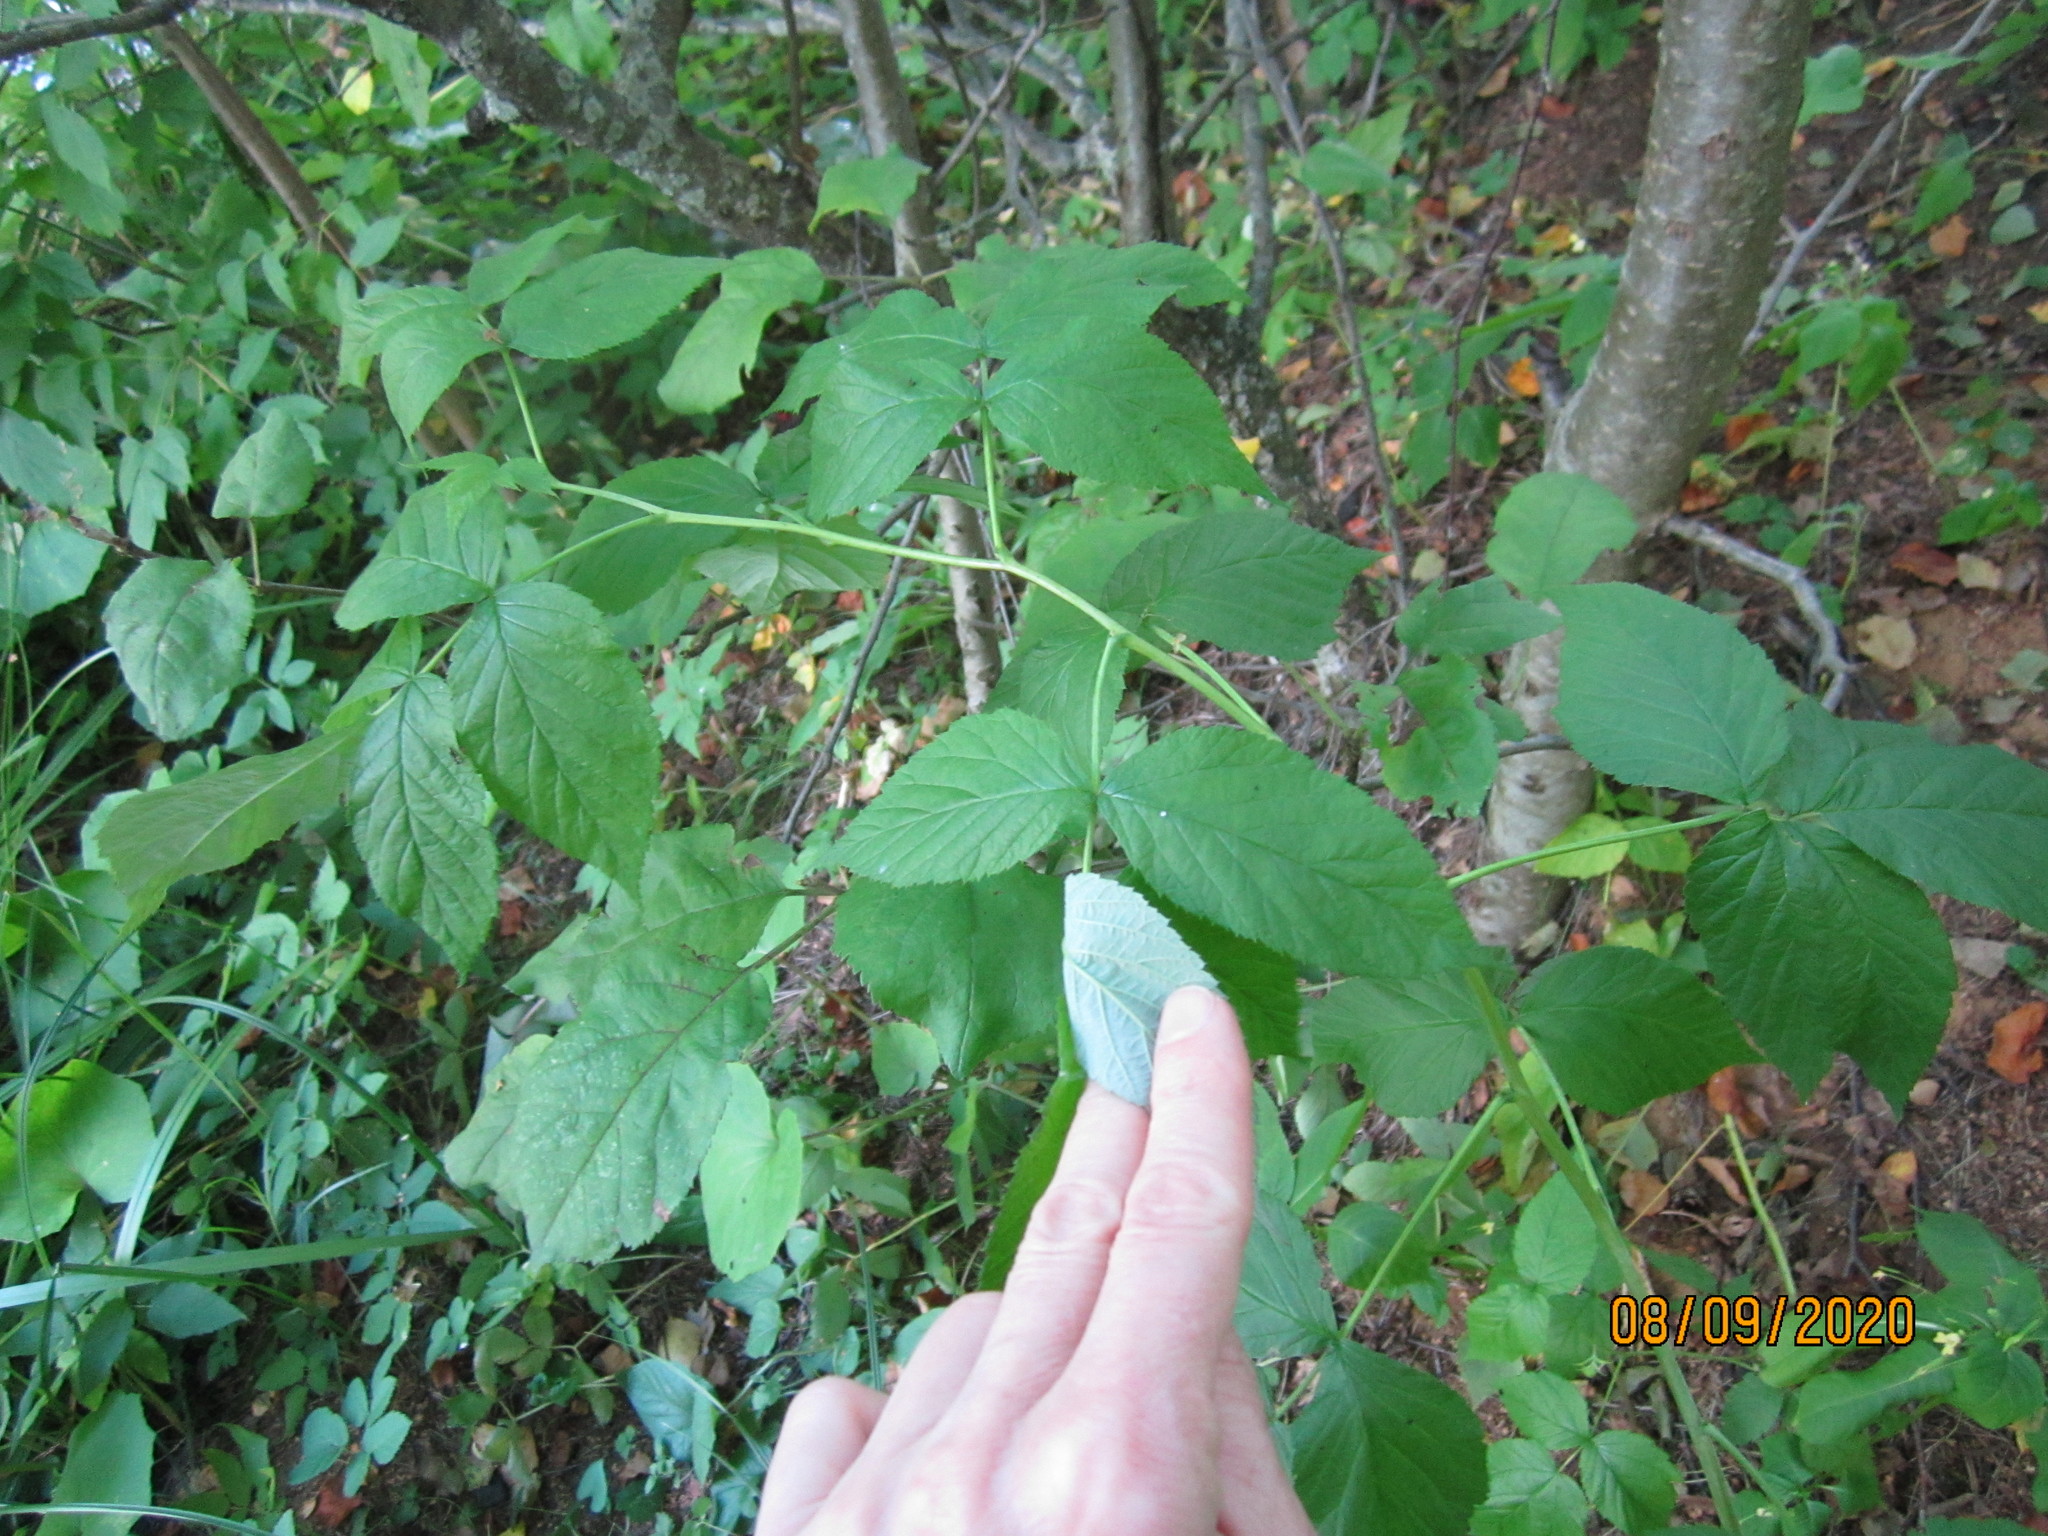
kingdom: Plantae
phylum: Tracheophyta
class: Magnoliopsida
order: Rosales
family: Rosaceae
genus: Rubus
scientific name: Rubus idaeus
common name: Raspberry
